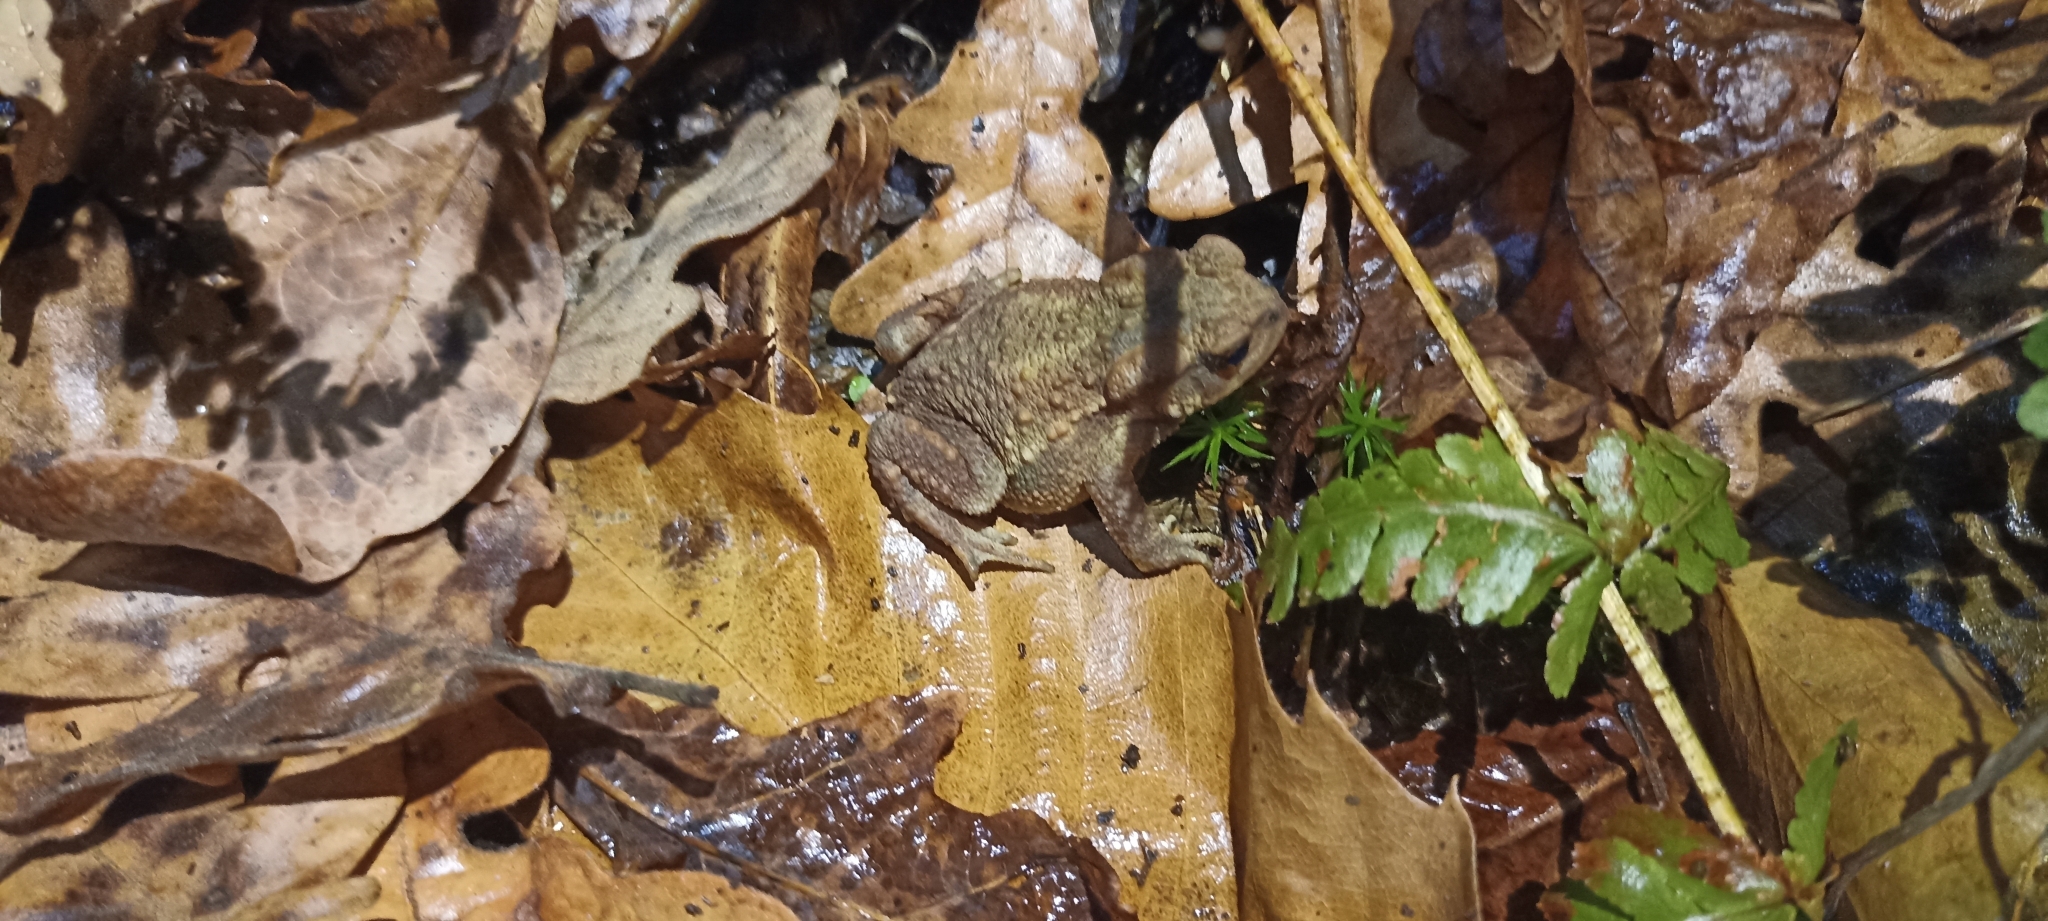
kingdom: Animalia
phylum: Chordata
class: Amphibia
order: Anura
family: Bufonidae
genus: Bufo
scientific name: Bufo spinosus
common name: Western common toad
